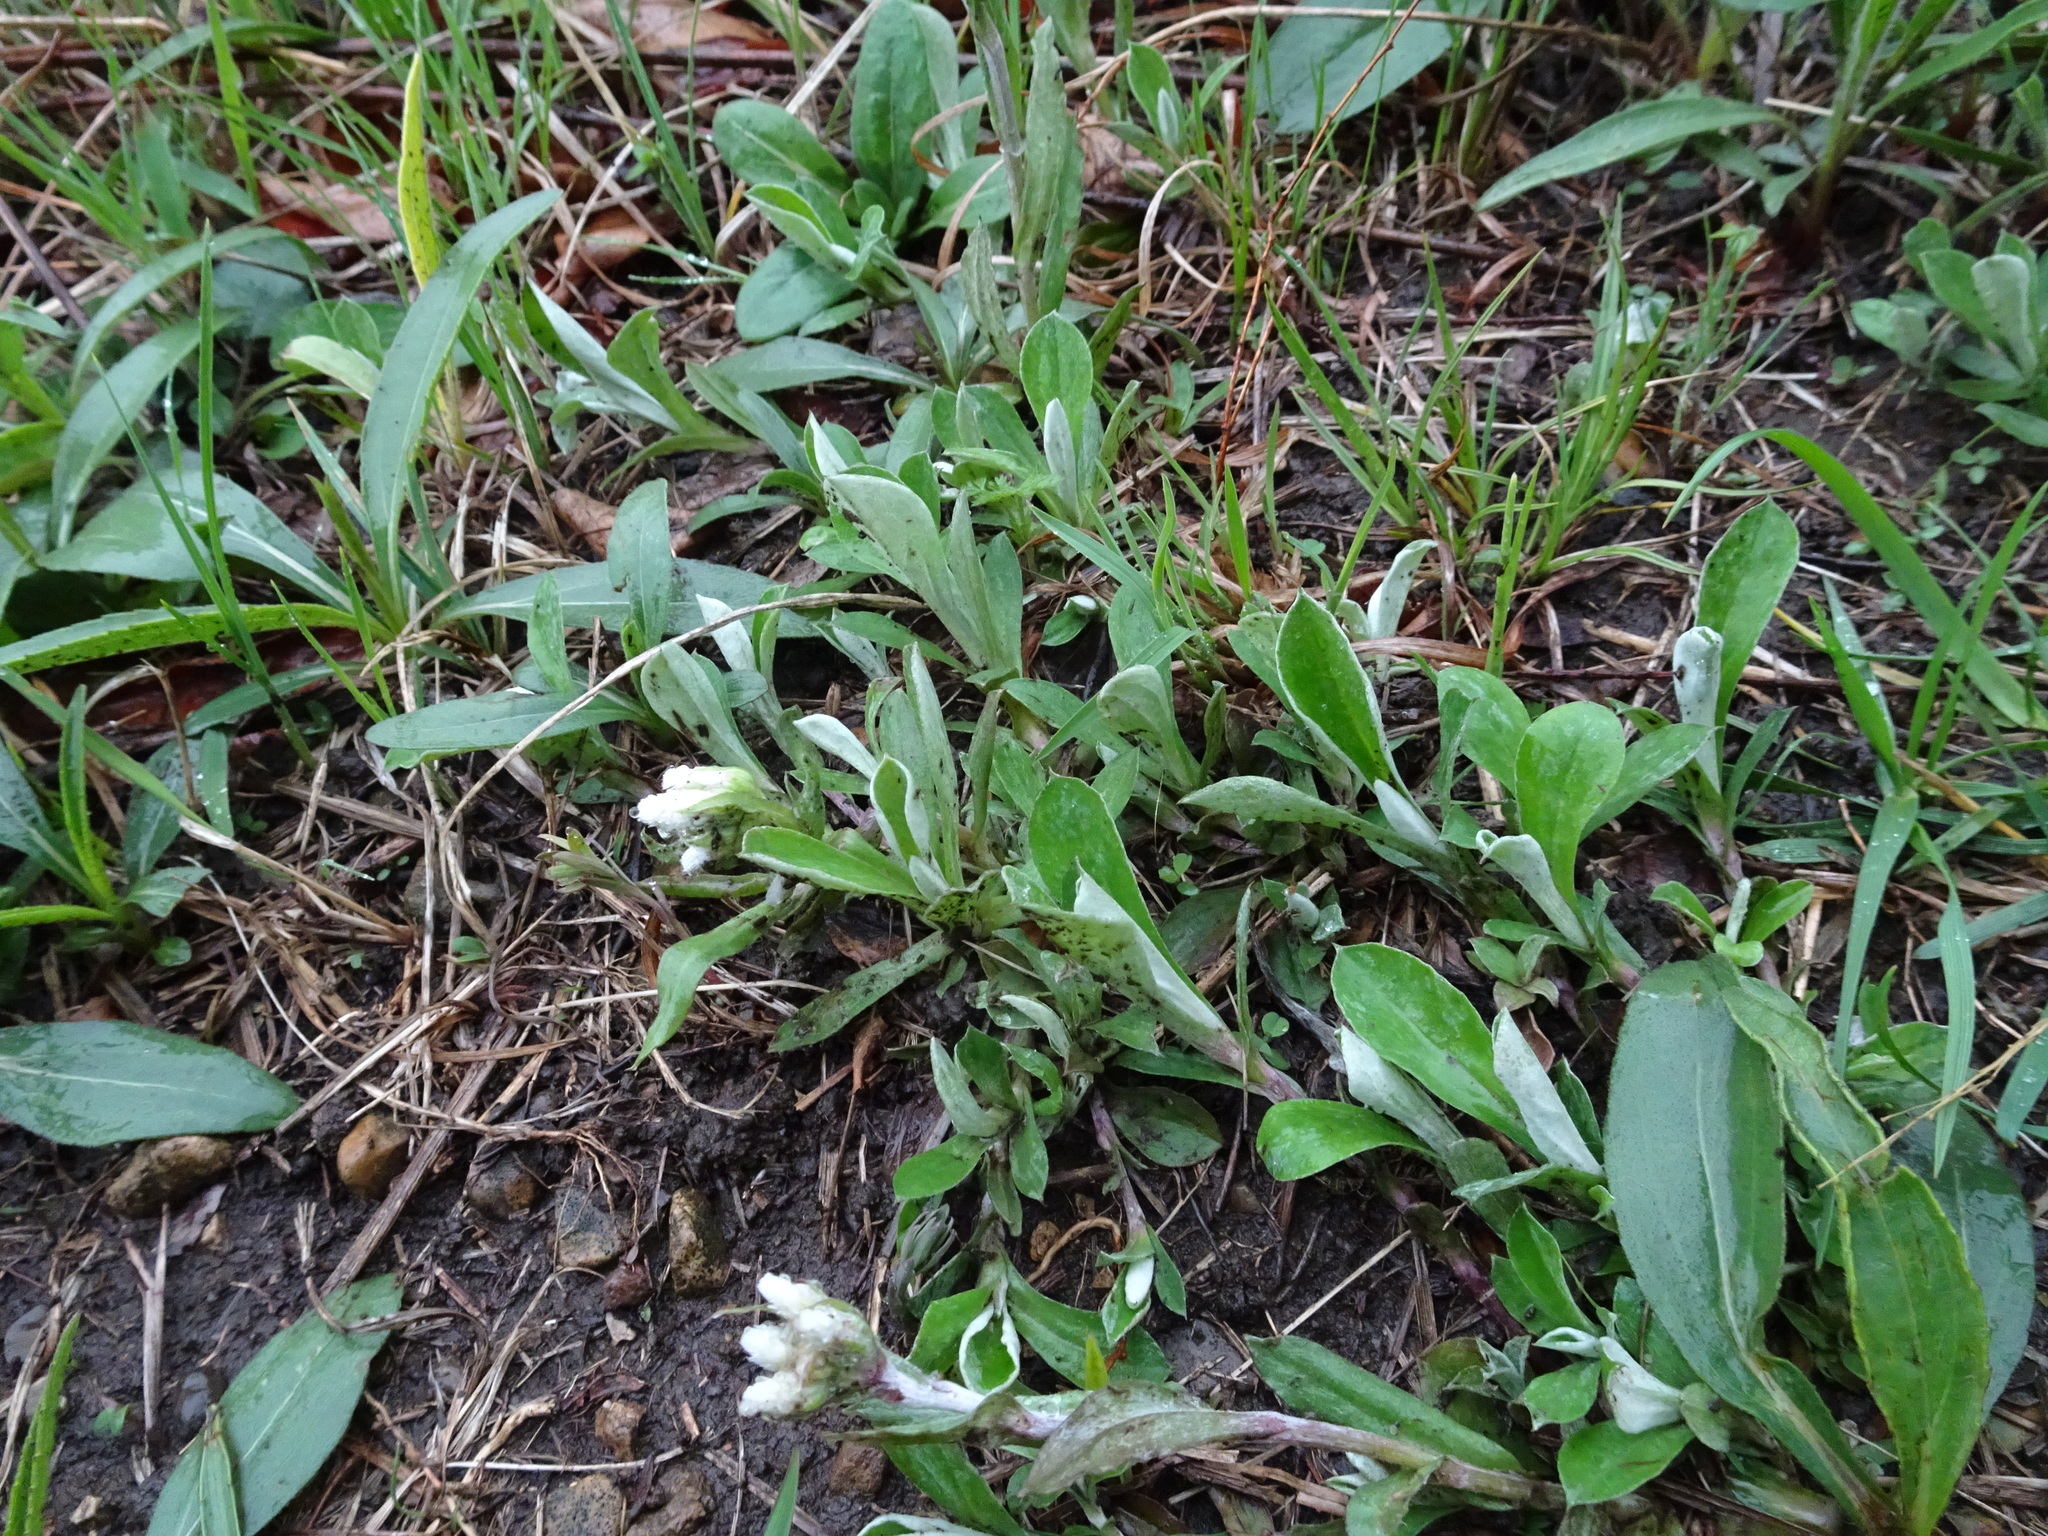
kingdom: Plantae
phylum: Tracheophyta
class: Magnoliopsida
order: Asterales
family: Asteraceae
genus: Antennaria
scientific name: Antennaria neglecta
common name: Field pussytoes
